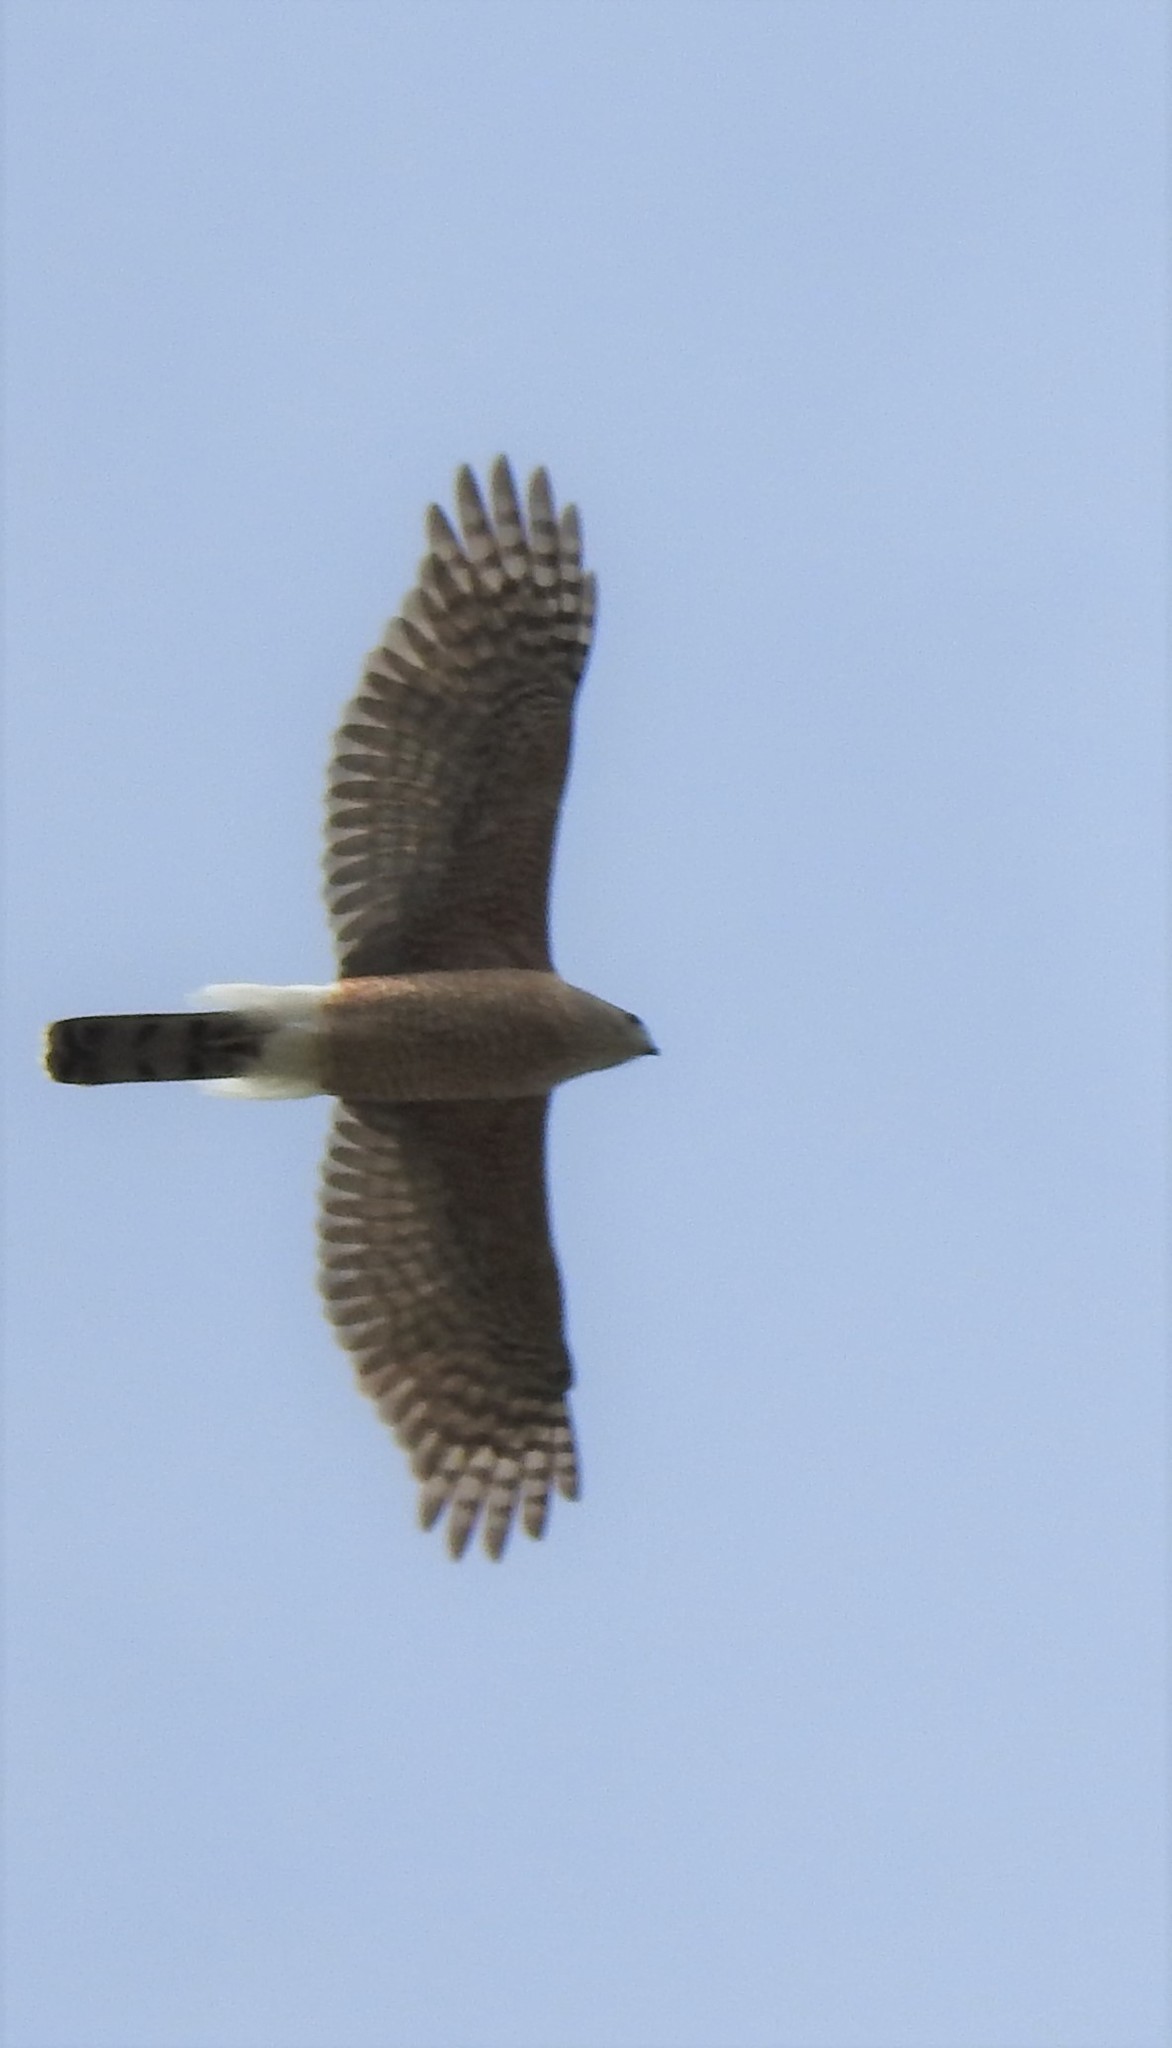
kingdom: Animalia
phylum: Chordata
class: Aves
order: Accipitriformes
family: Accipitridae
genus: Accipiter
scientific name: Accipiter cooperii
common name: Cooper's hawk
